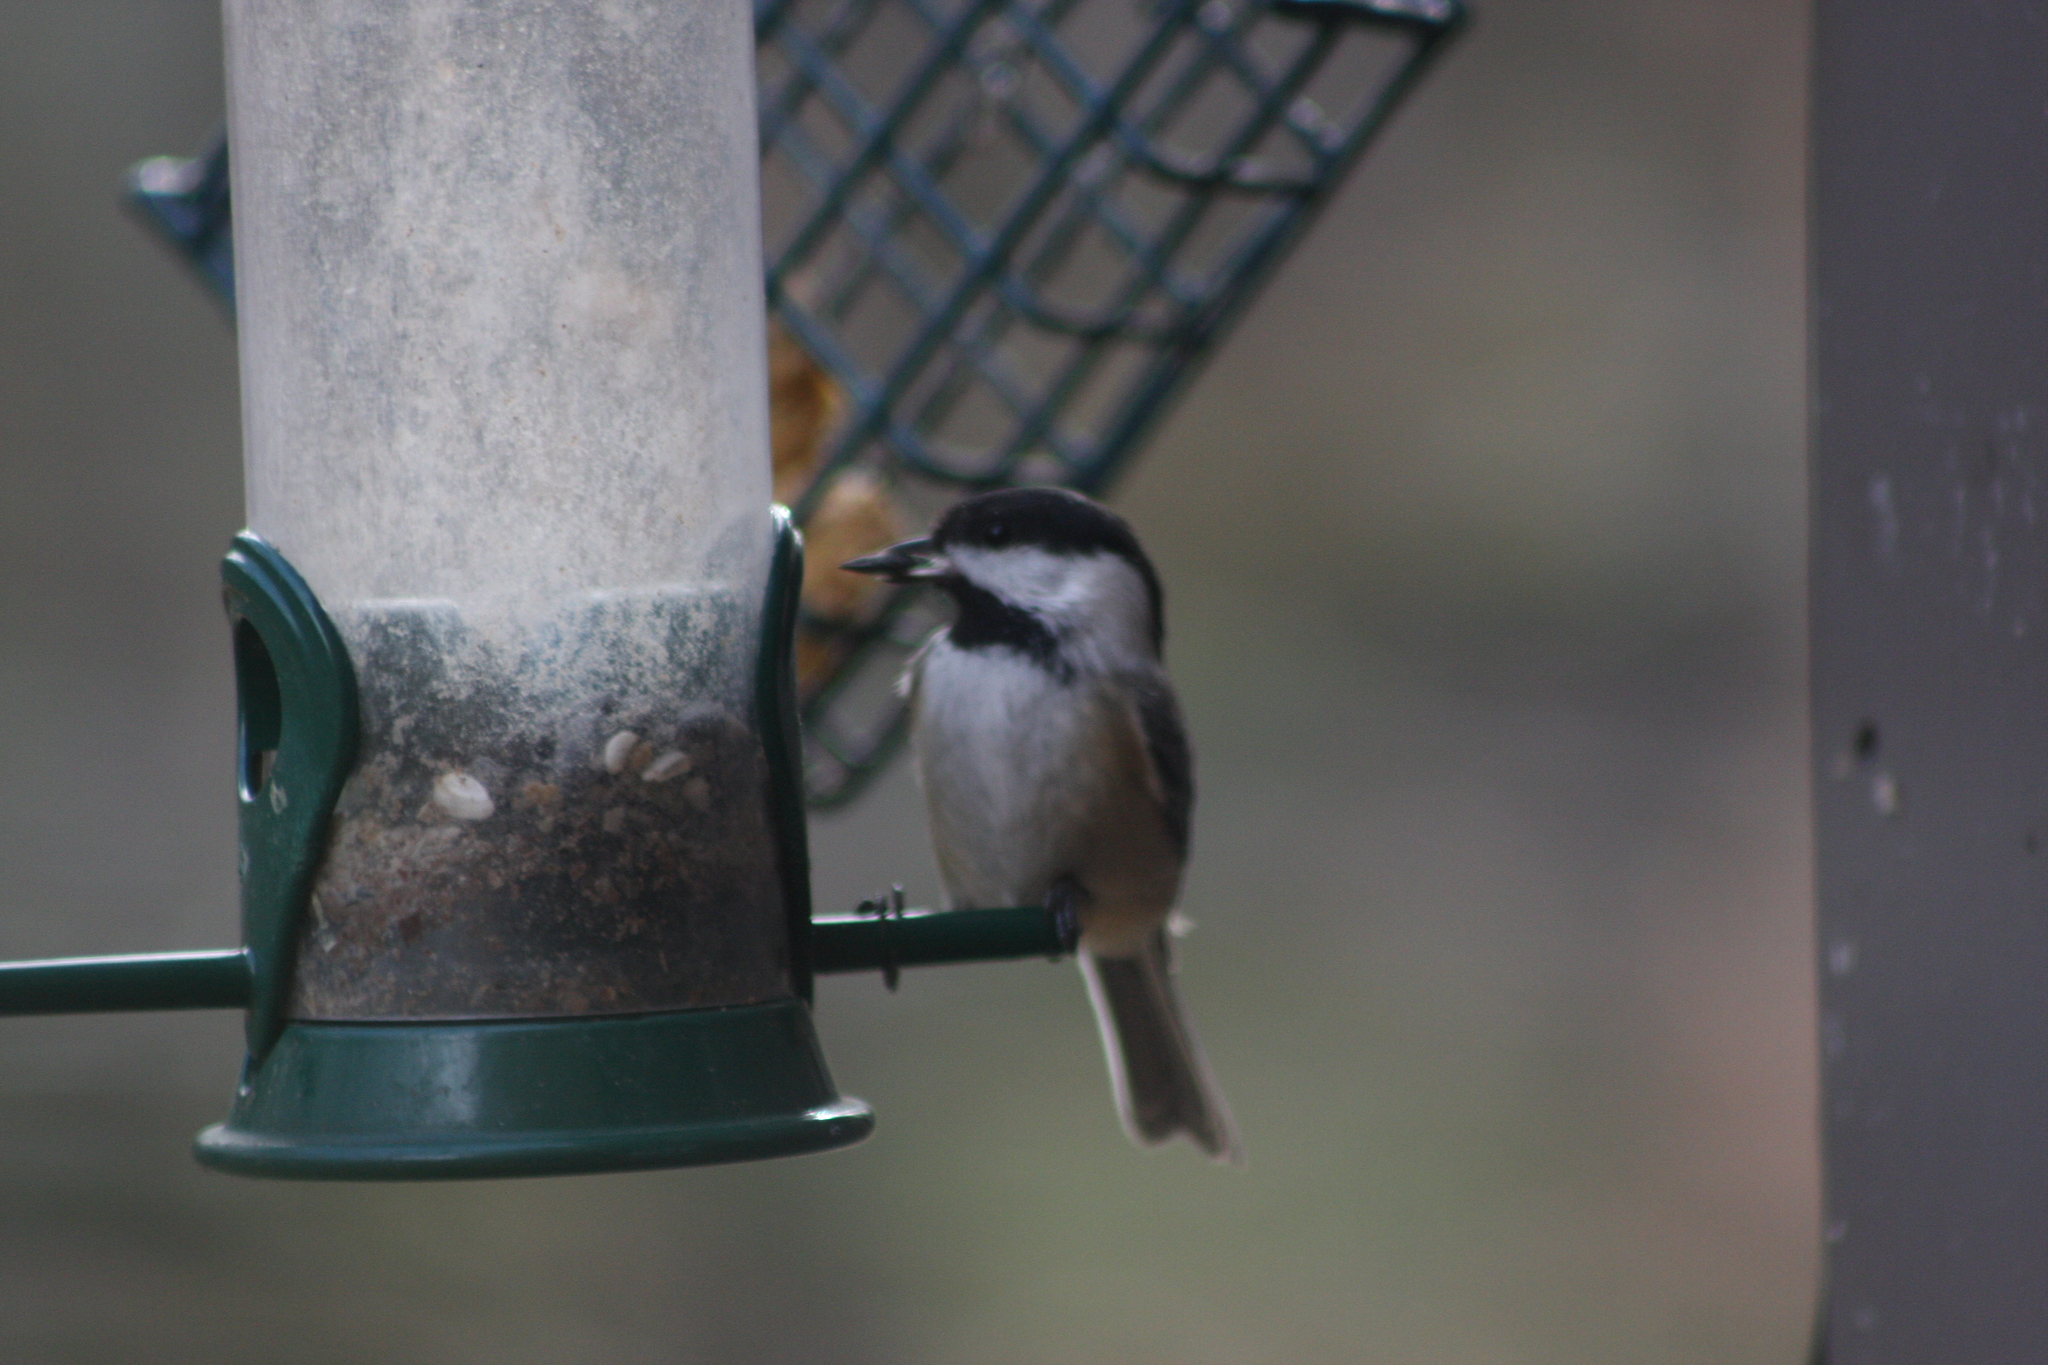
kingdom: Animalia
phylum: Chordata
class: Aves
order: Passeriformes
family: Paridae
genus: Poecile
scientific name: Poecile atricapillus
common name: Black-capped chickadee
